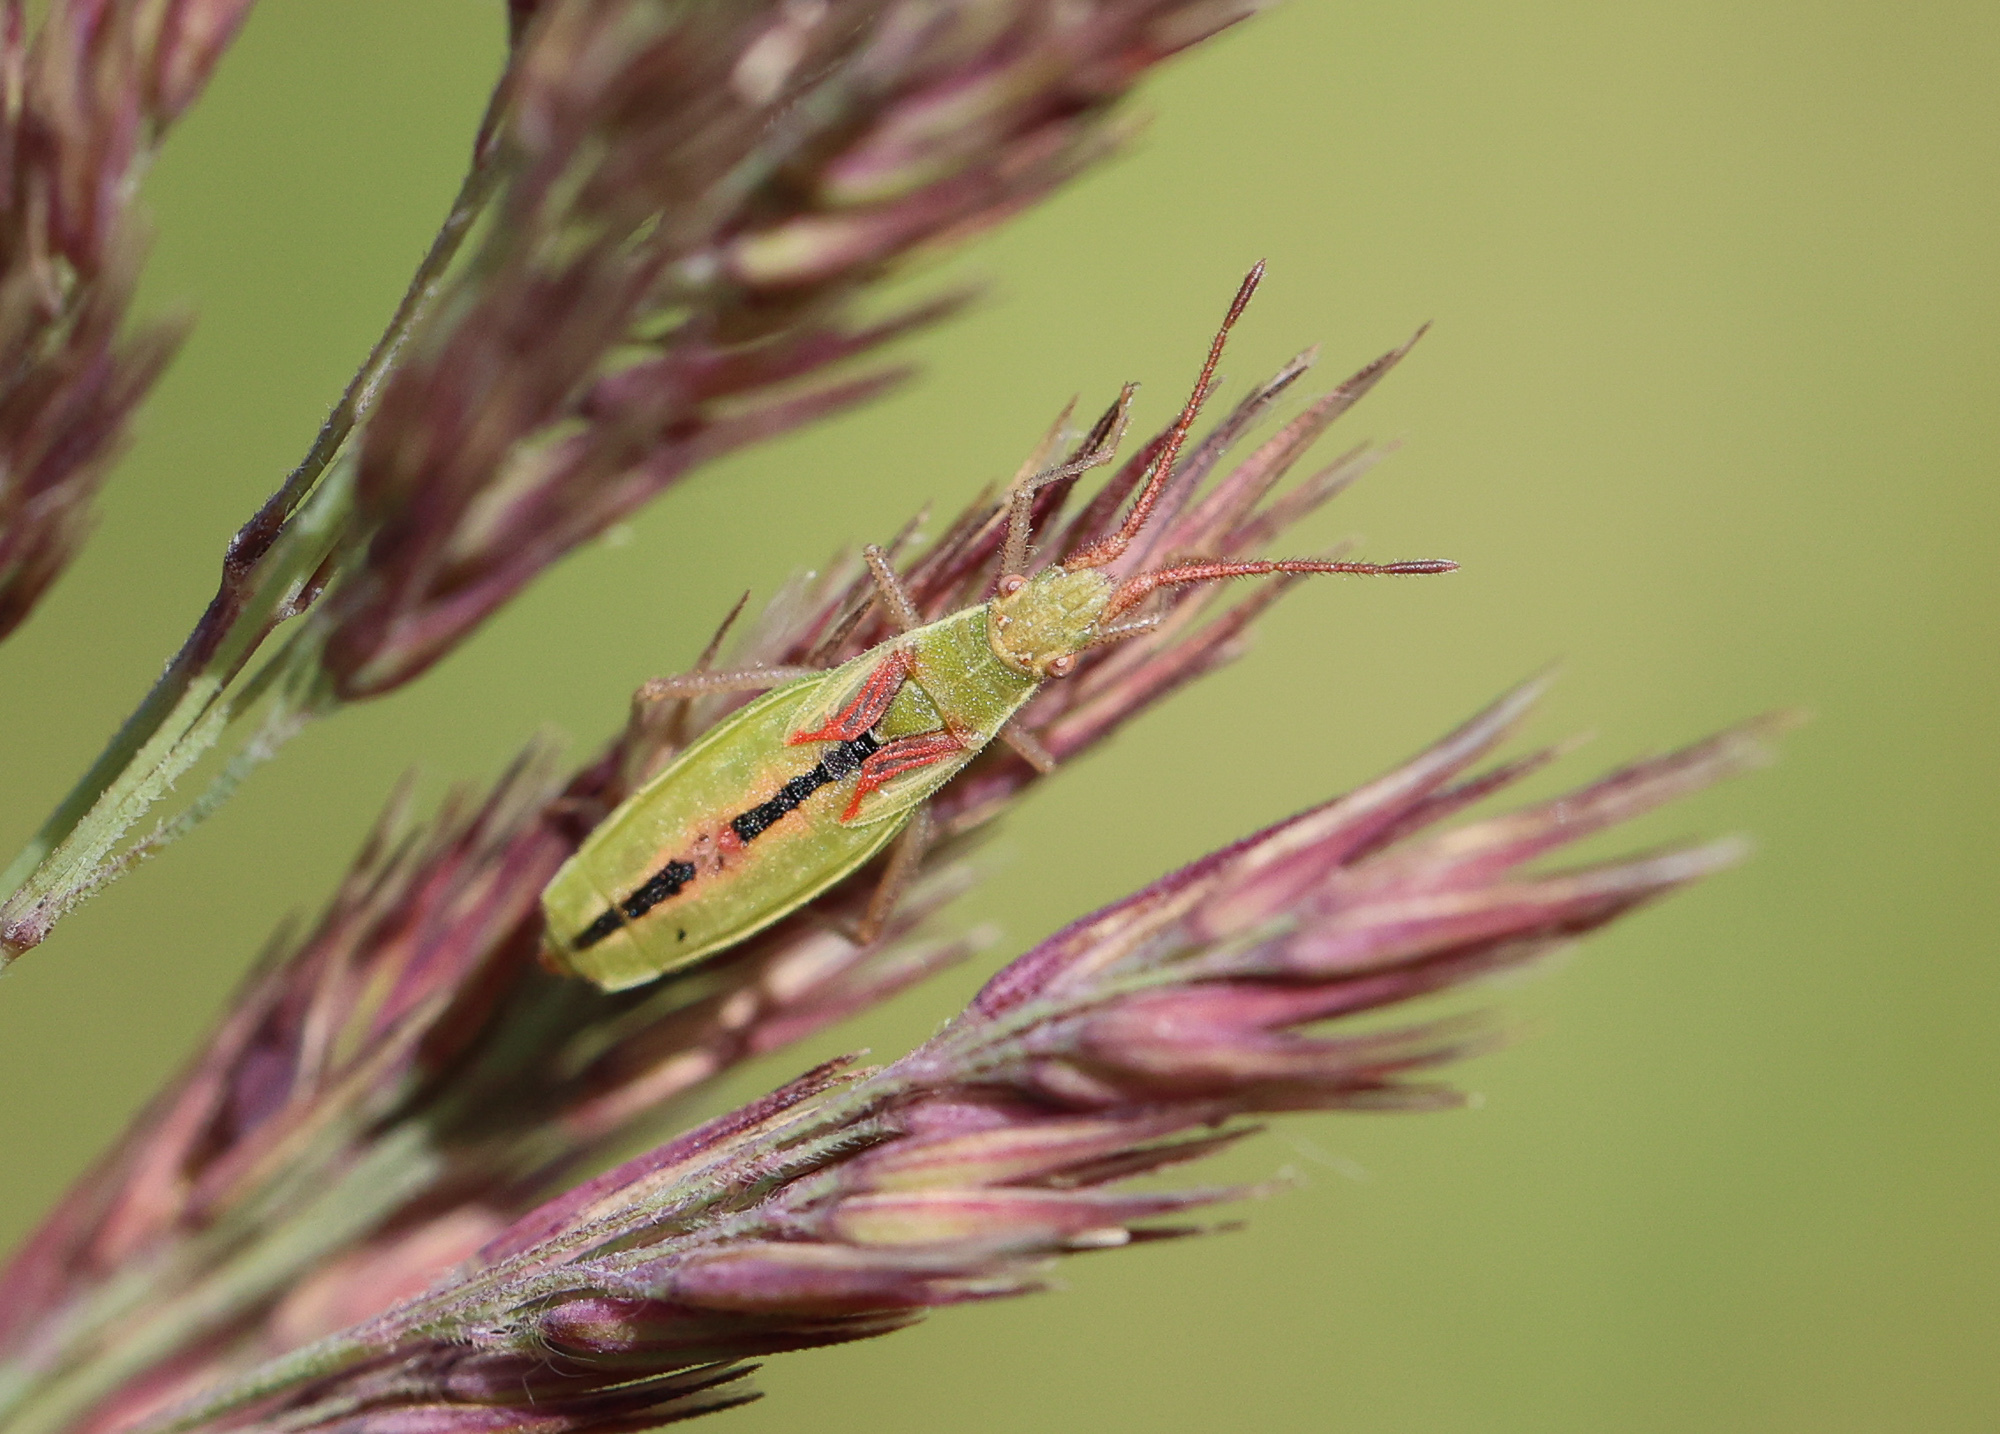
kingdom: Animalia
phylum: Arthropoda
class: Insecta
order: Hemiptera
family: Rhopalidae
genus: Myrmus
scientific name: Myrmus miriformis
